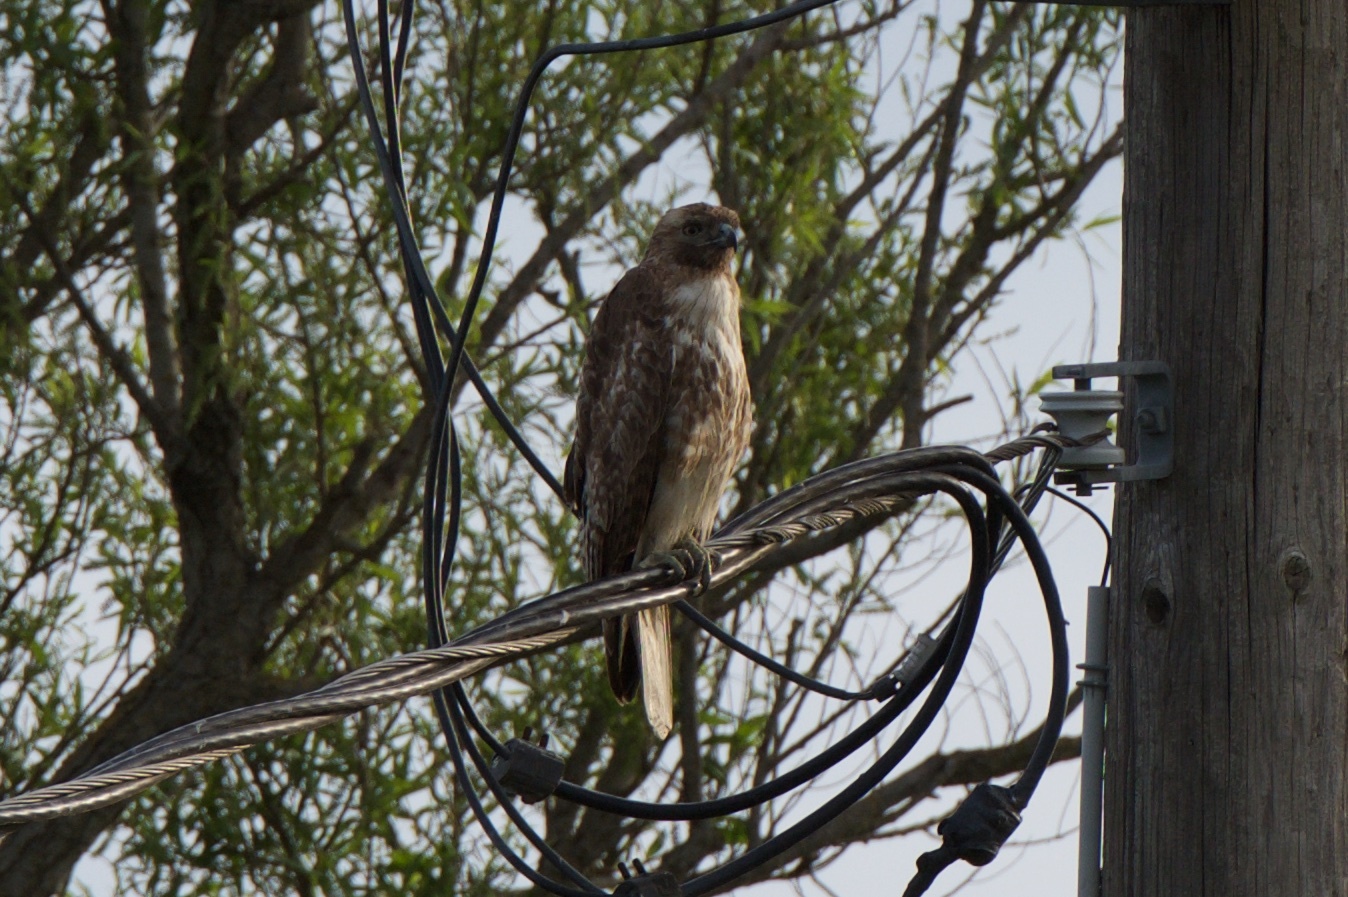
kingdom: Animalia
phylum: Chordata
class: Aves
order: Accipitriformes
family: Accipitridae
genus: Buteo
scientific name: Buteo jamaicensis
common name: Red-tailed hawk
